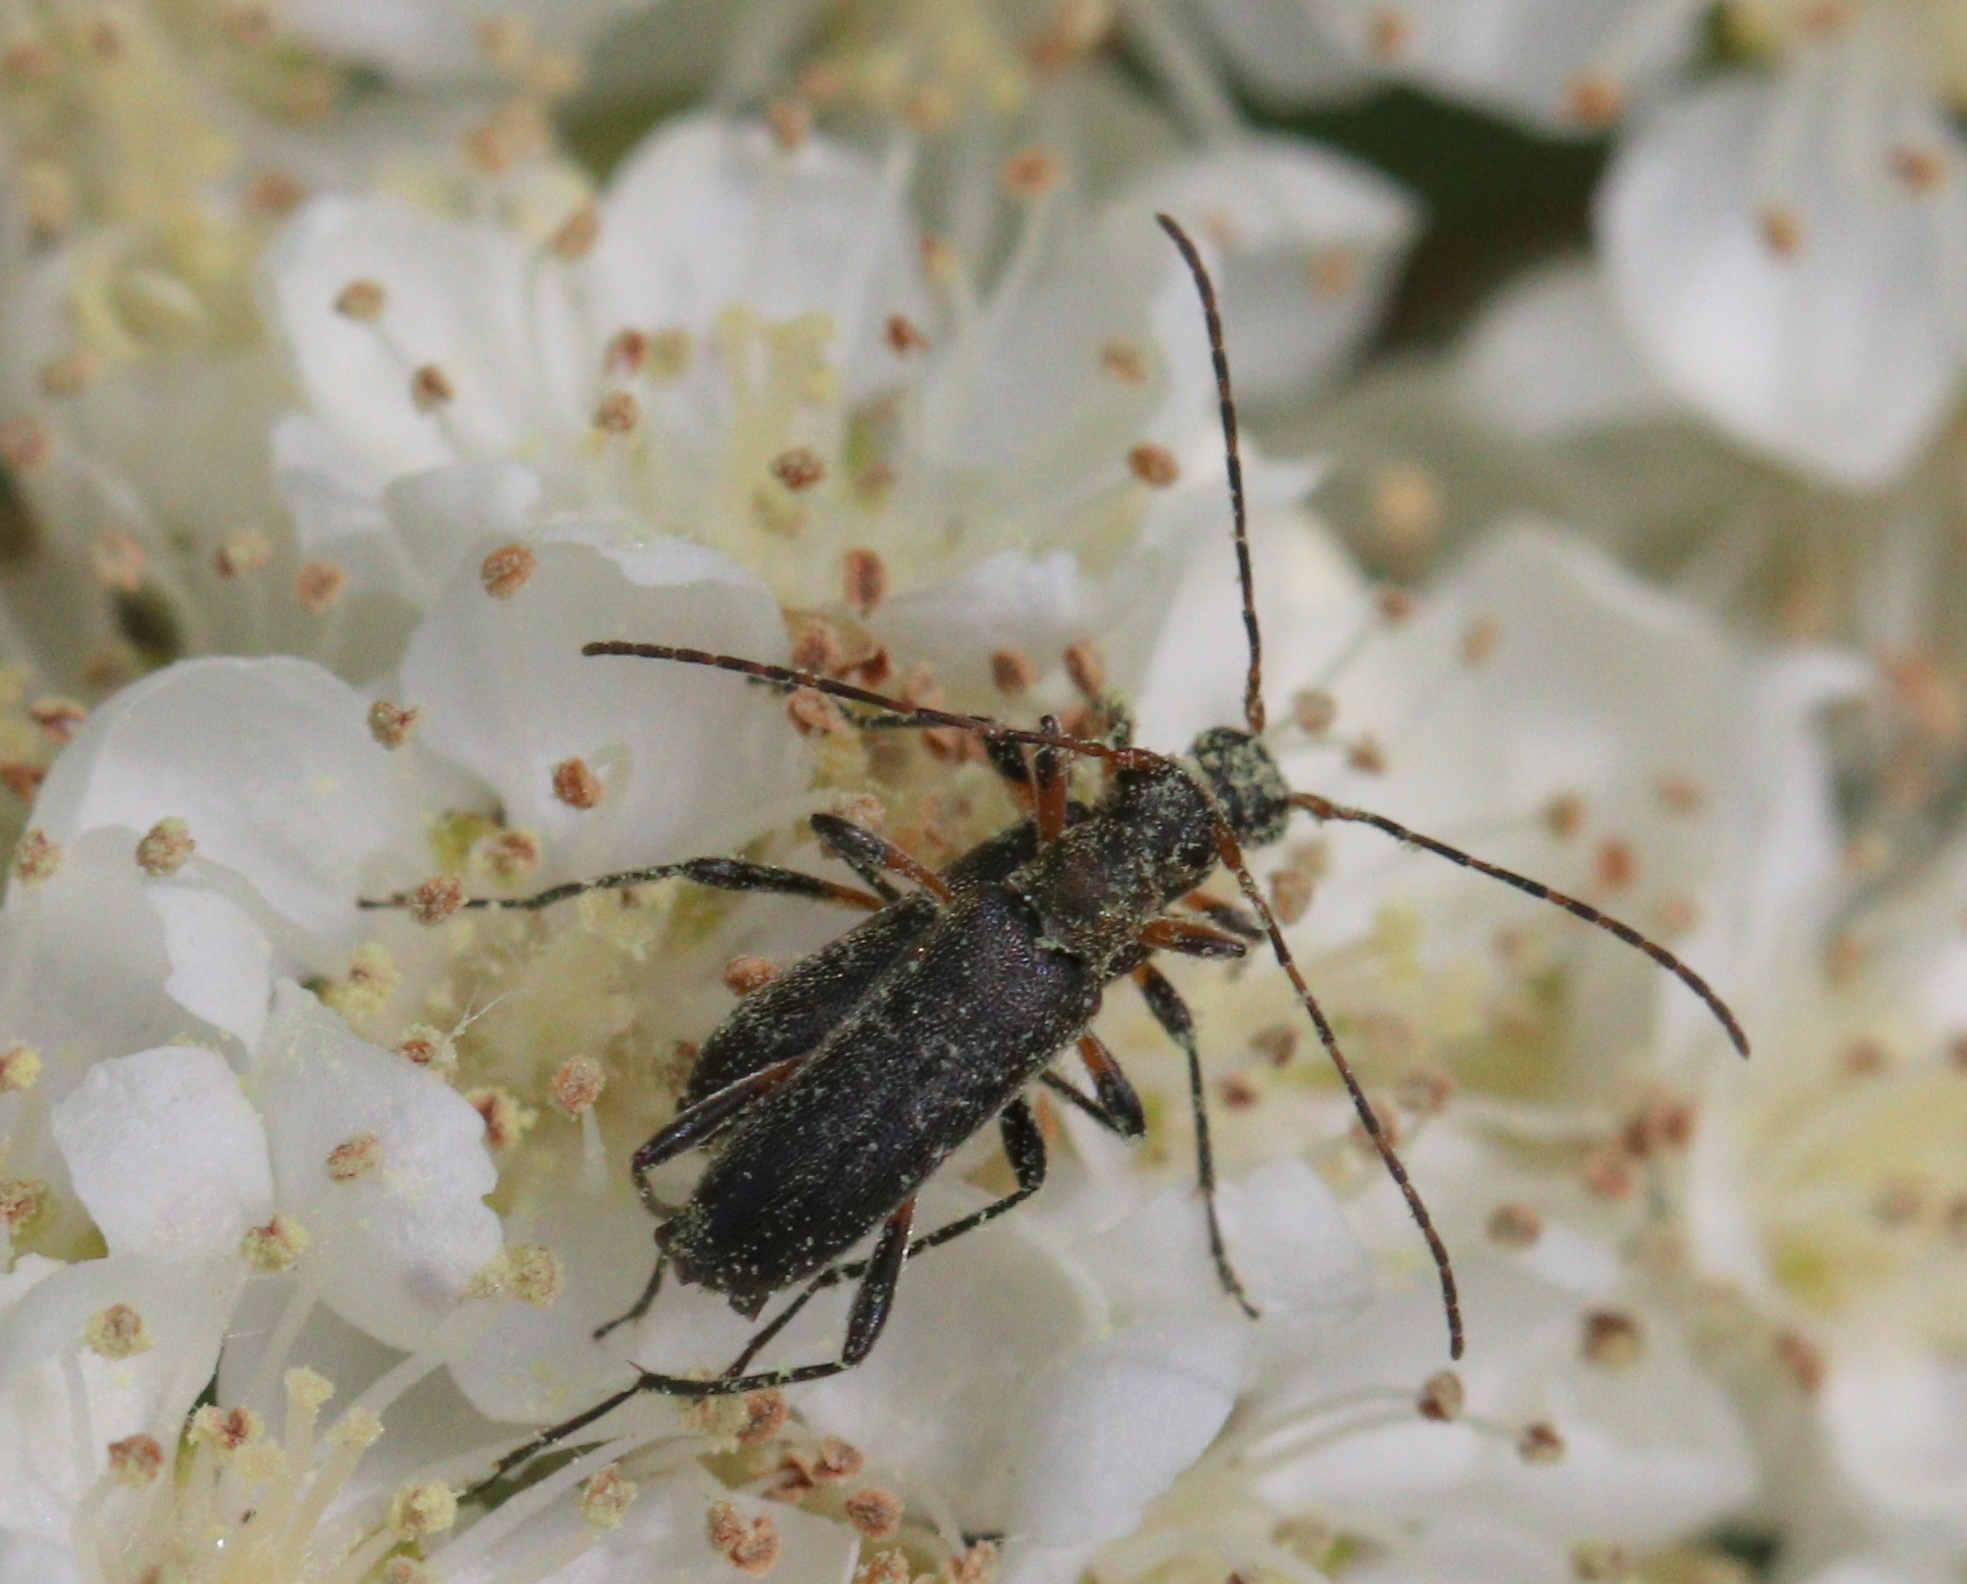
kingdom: Animalia
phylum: Arthropoda
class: Insecta
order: Coleoptera
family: Cerambycidae
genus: Grammoptera
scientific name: Grammoptera ruficornis
